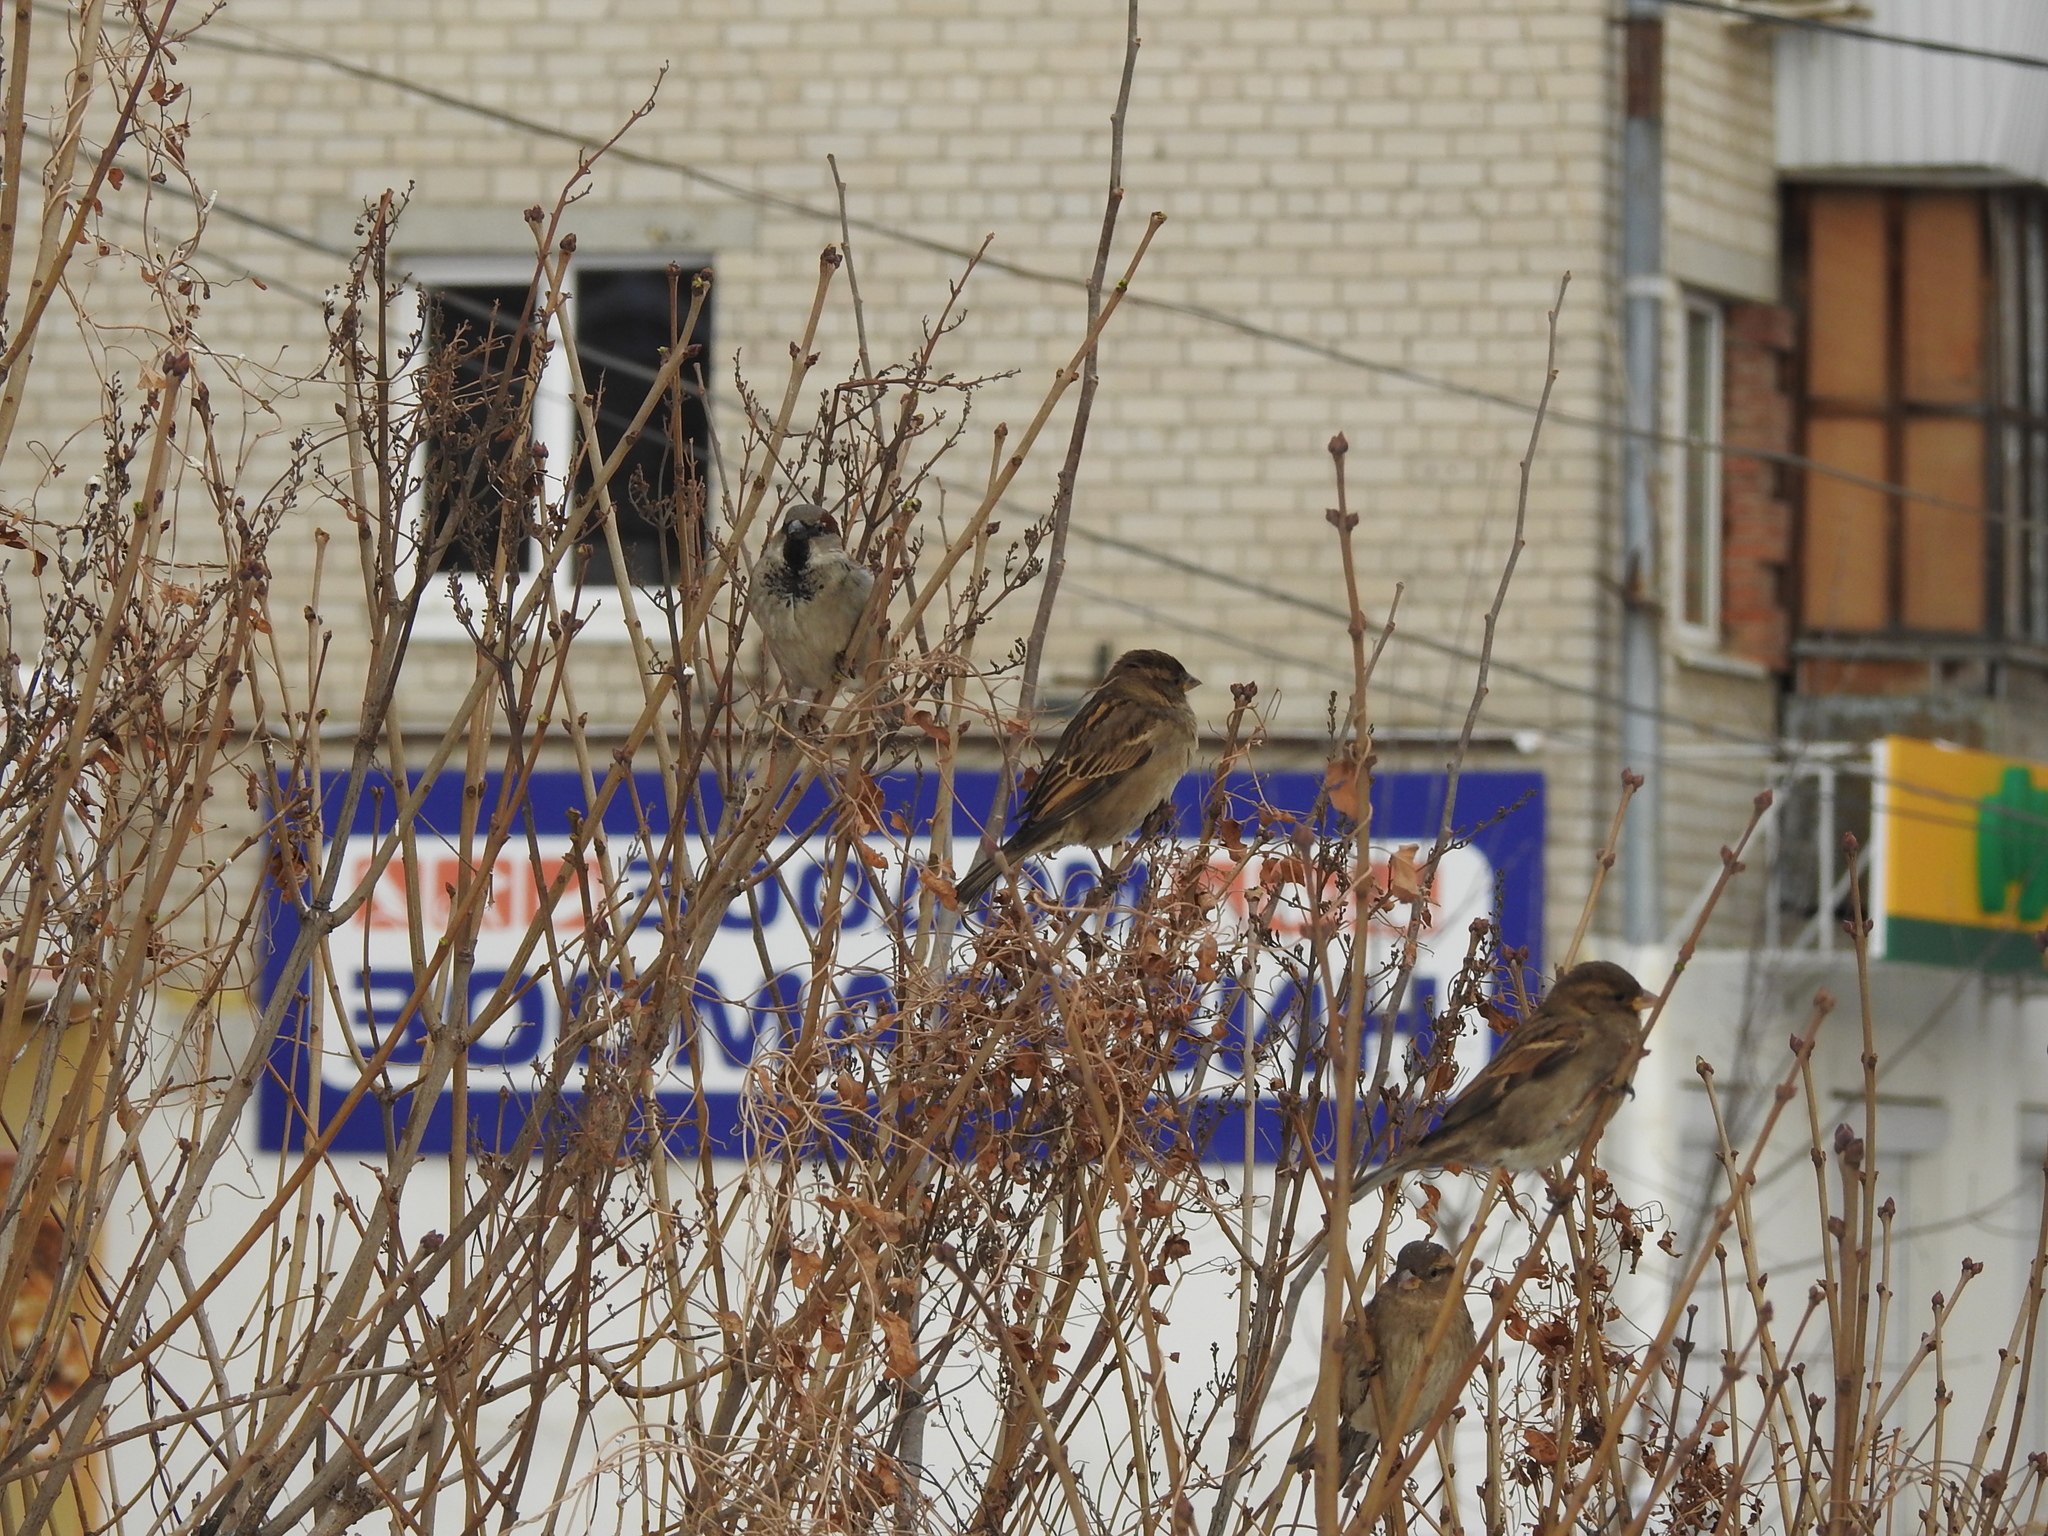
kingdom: Animalia
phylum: Chordata
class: Aves
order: Passeriformes
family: Passeridae
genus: Passer
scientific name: Passer domesticus
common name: House sparrow
